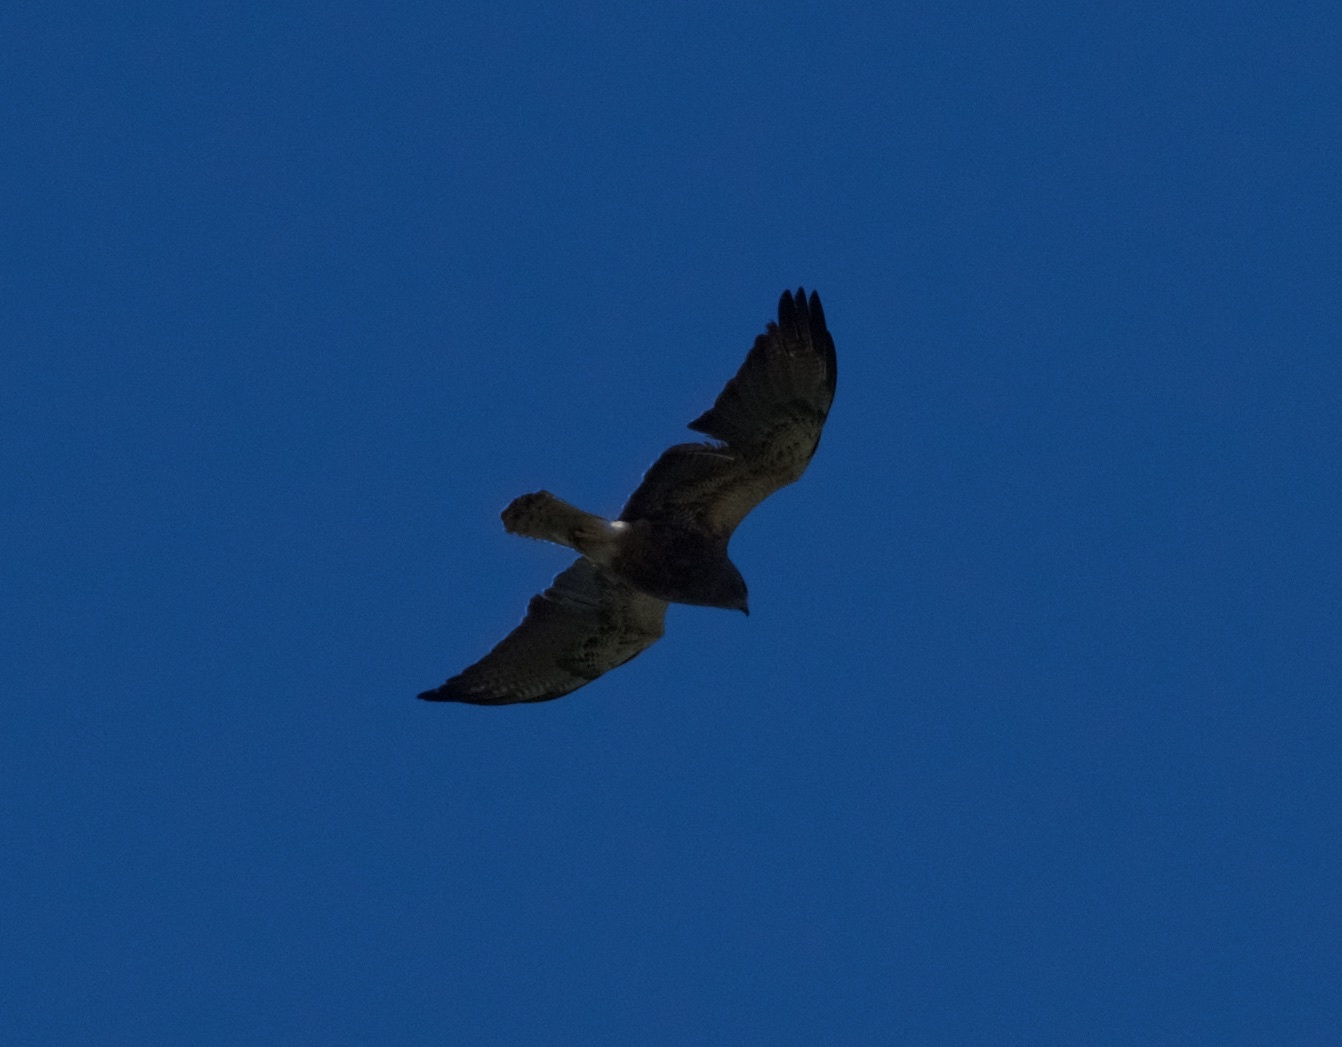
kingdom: Animalia
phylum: Chordata
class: Aves
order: Accipitriformes
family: Accipitridae
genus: Buteo
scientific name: Buteo swainsoni
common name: Swainson's hawk
